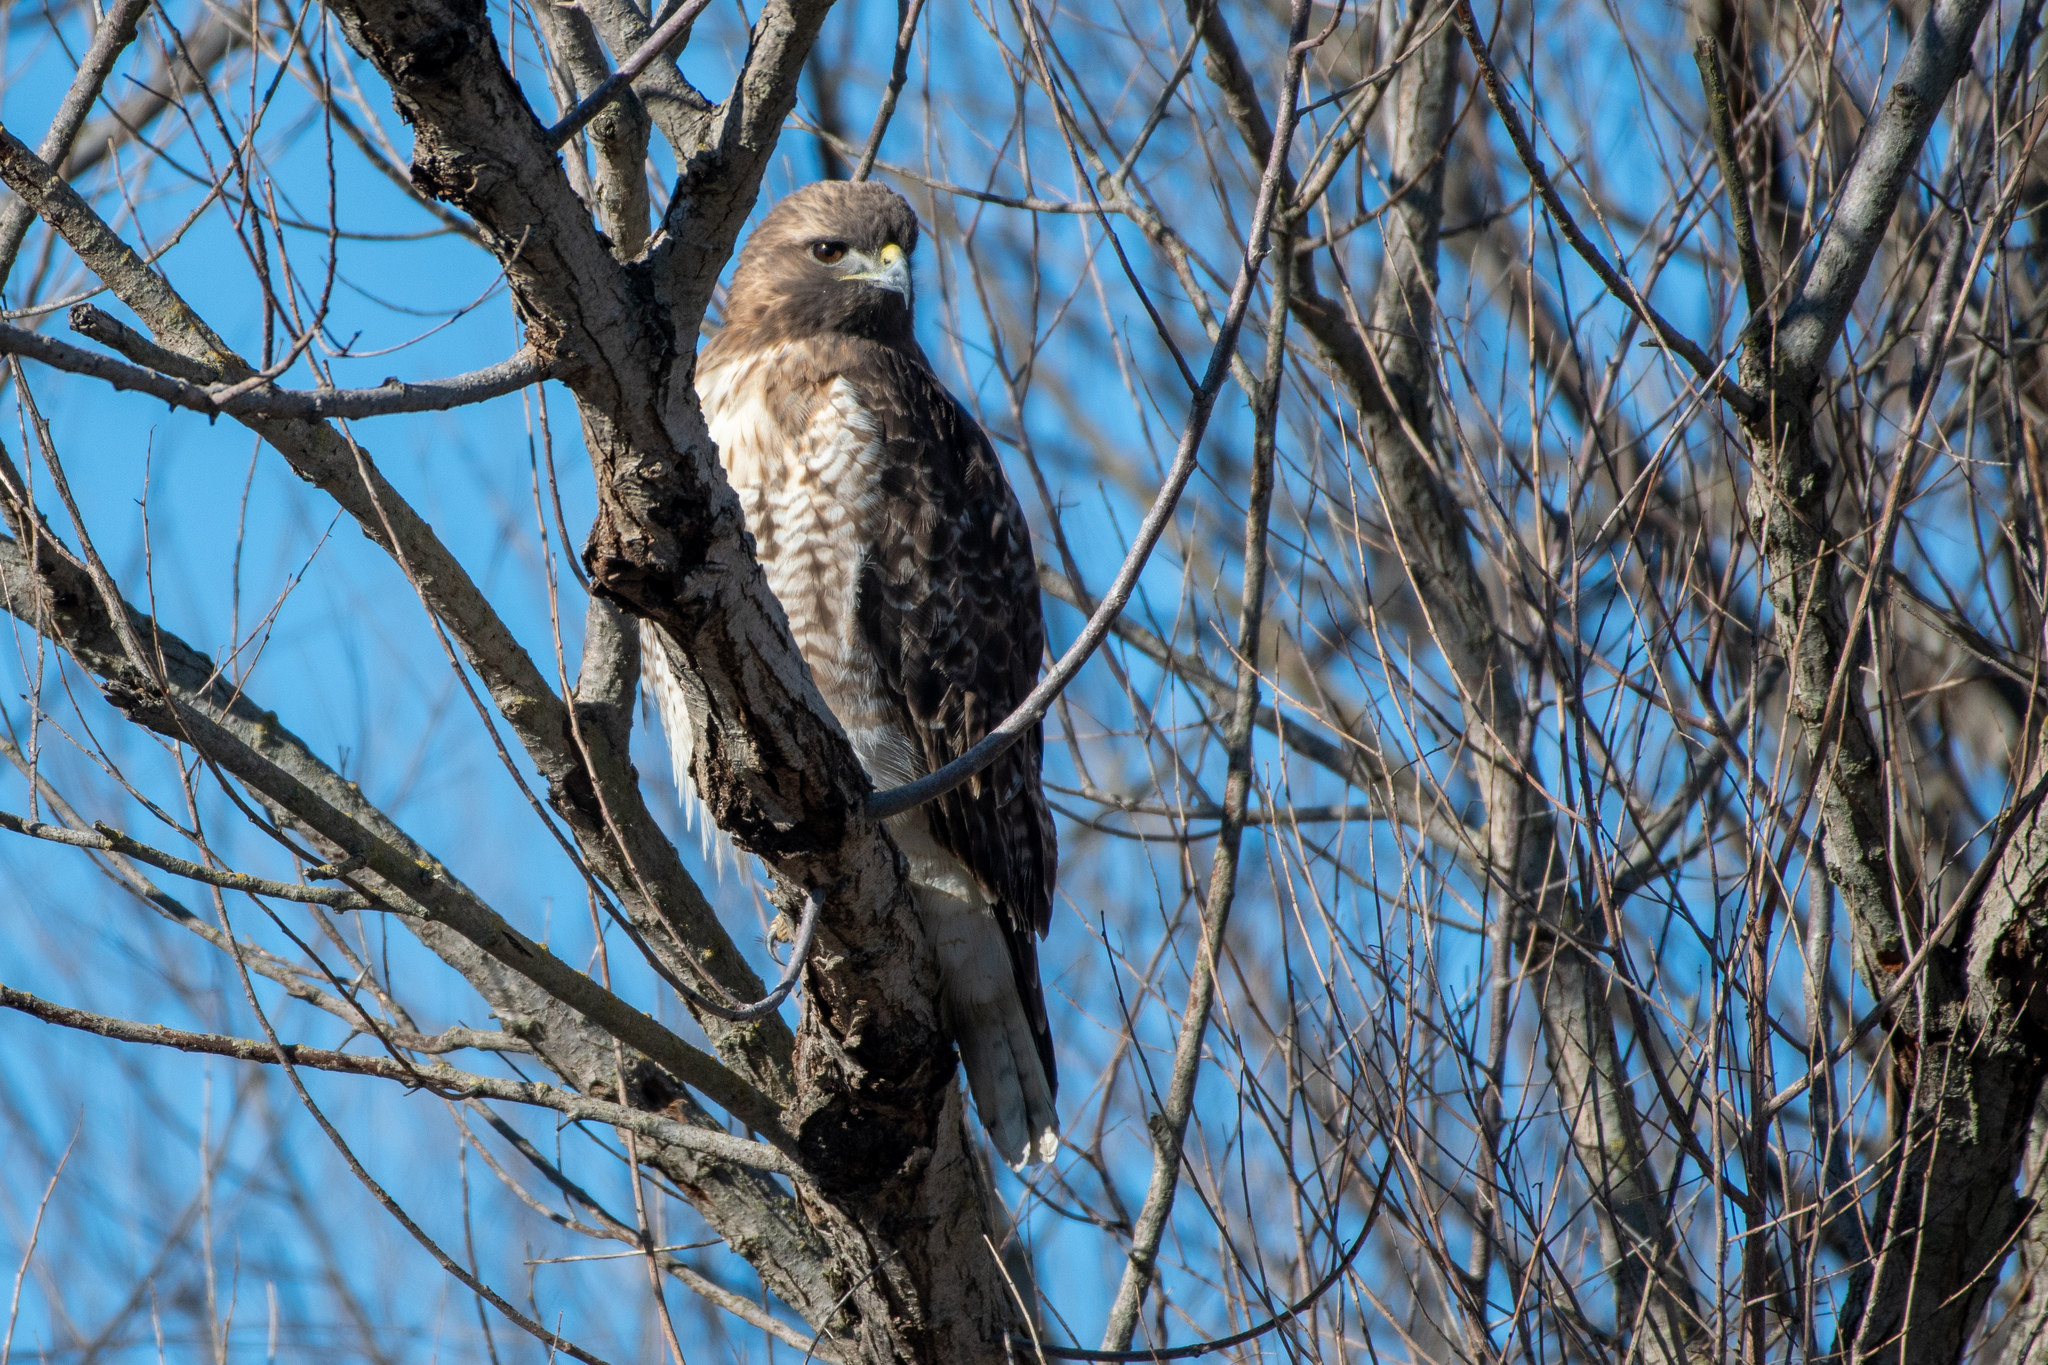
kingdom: Animalia
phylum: Chordata
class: Aves
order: Accipitriformes
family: Accipitridae
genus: Buteo
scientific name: Buteo jamaicensis
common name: Red-tailed hawk
